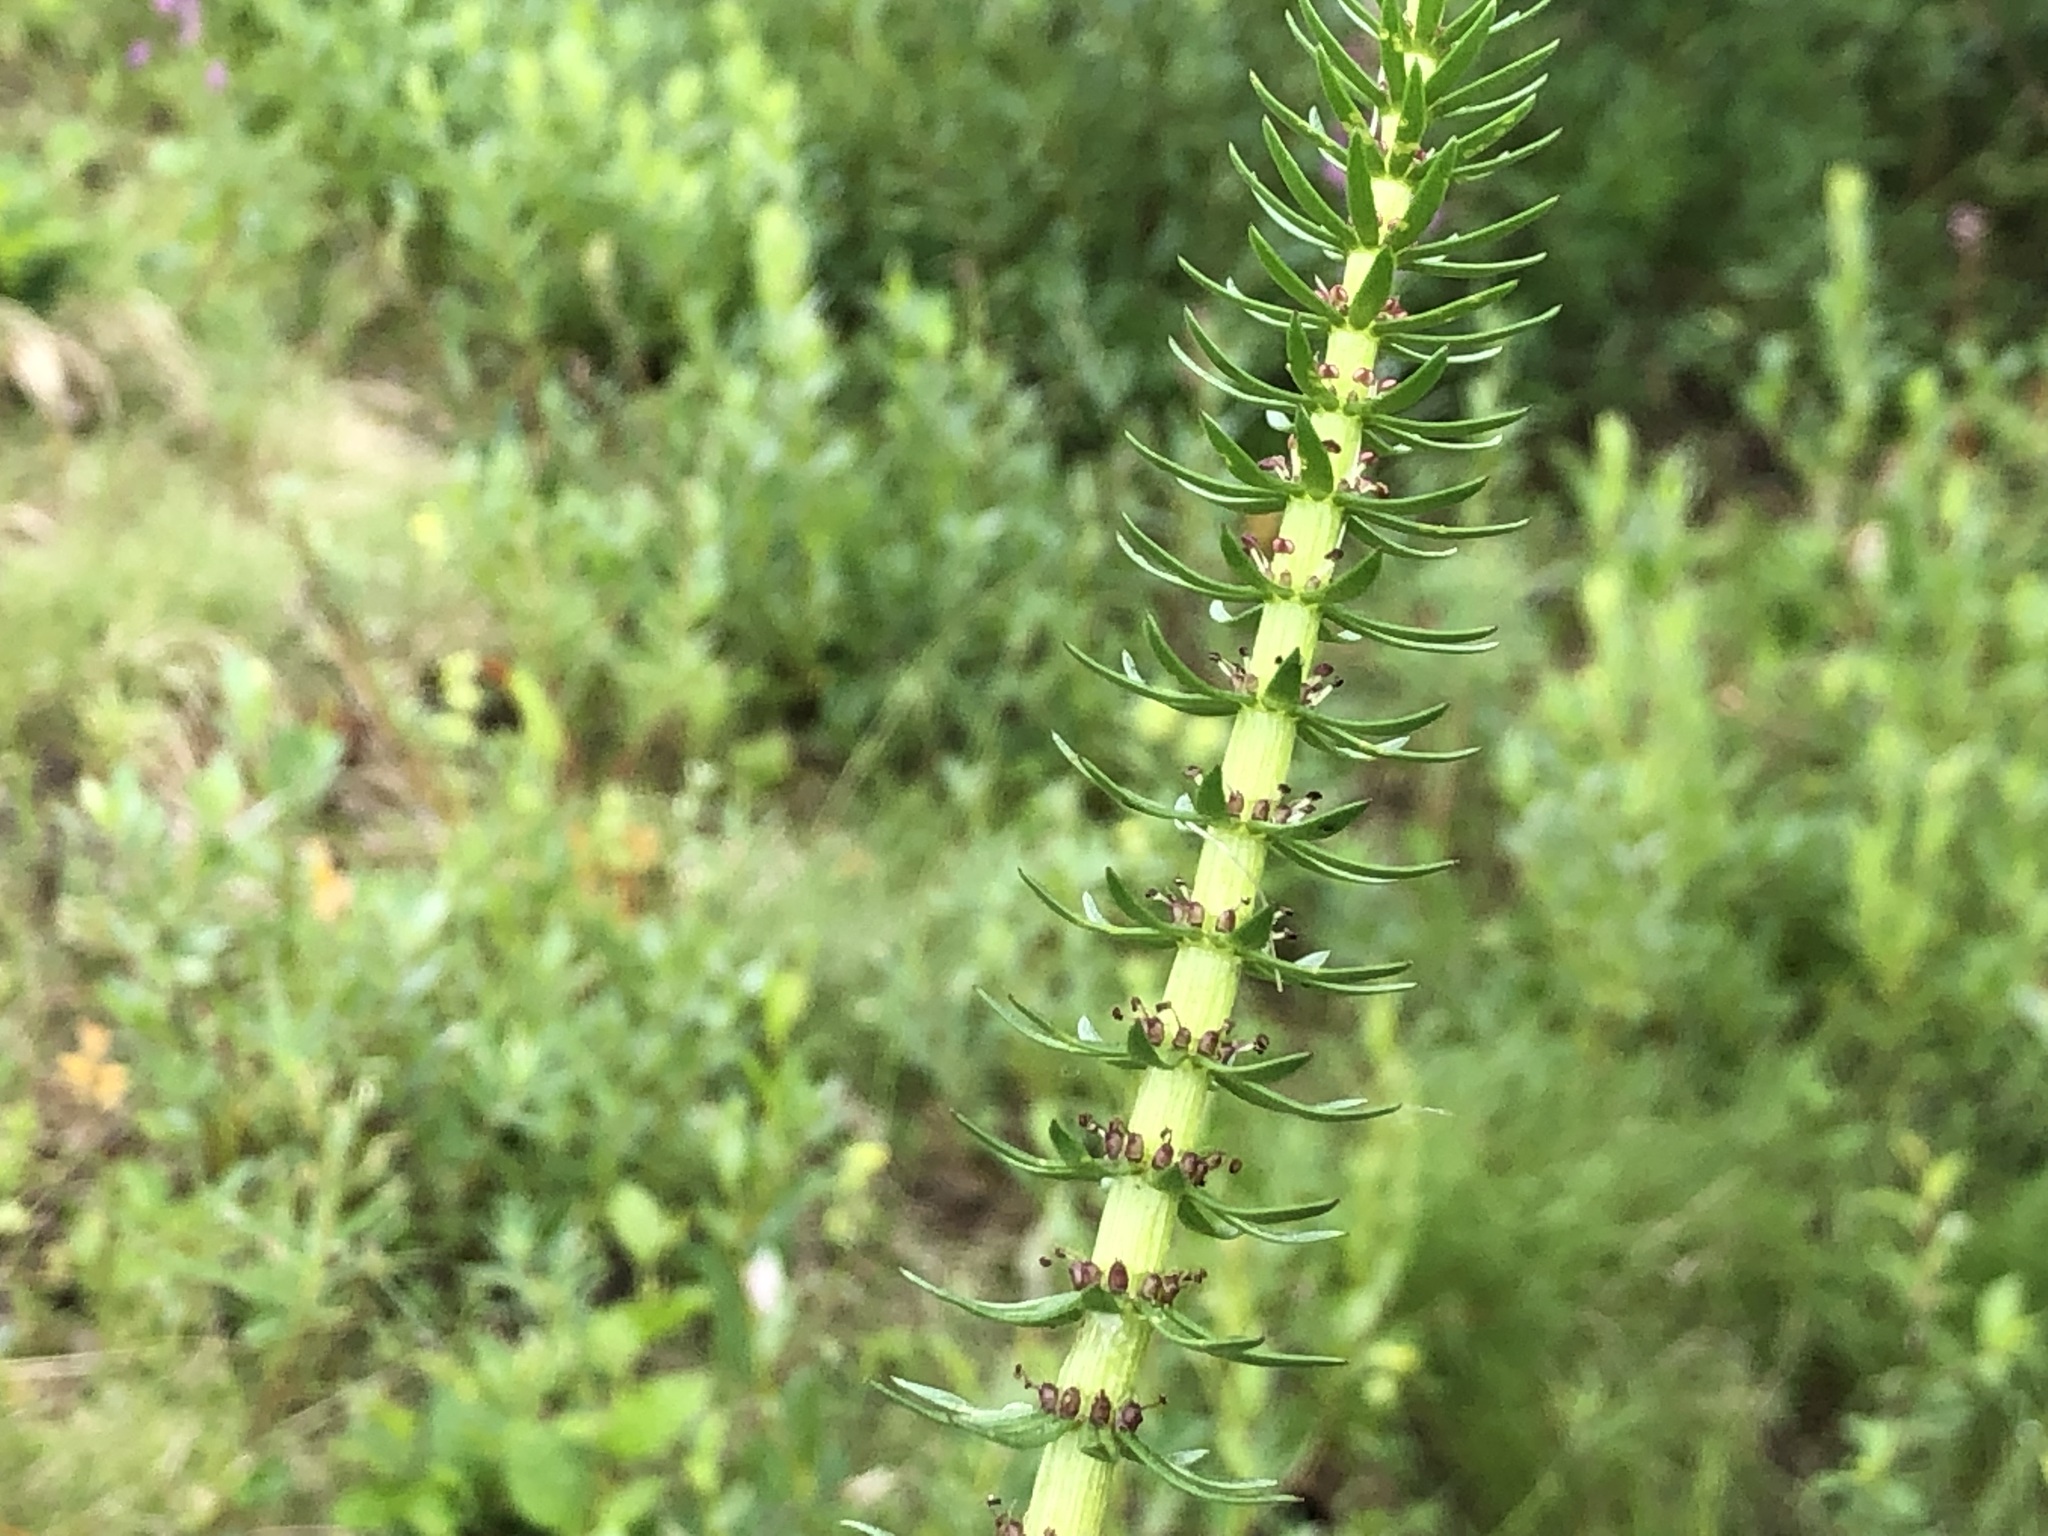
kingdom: Plantae
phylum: Tracheophyta
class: Magnoliopsida
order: Lamiales
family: Plantaginaceae
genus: Hippuris
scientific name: Hippuris vulgaris
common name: Mare's-tail
